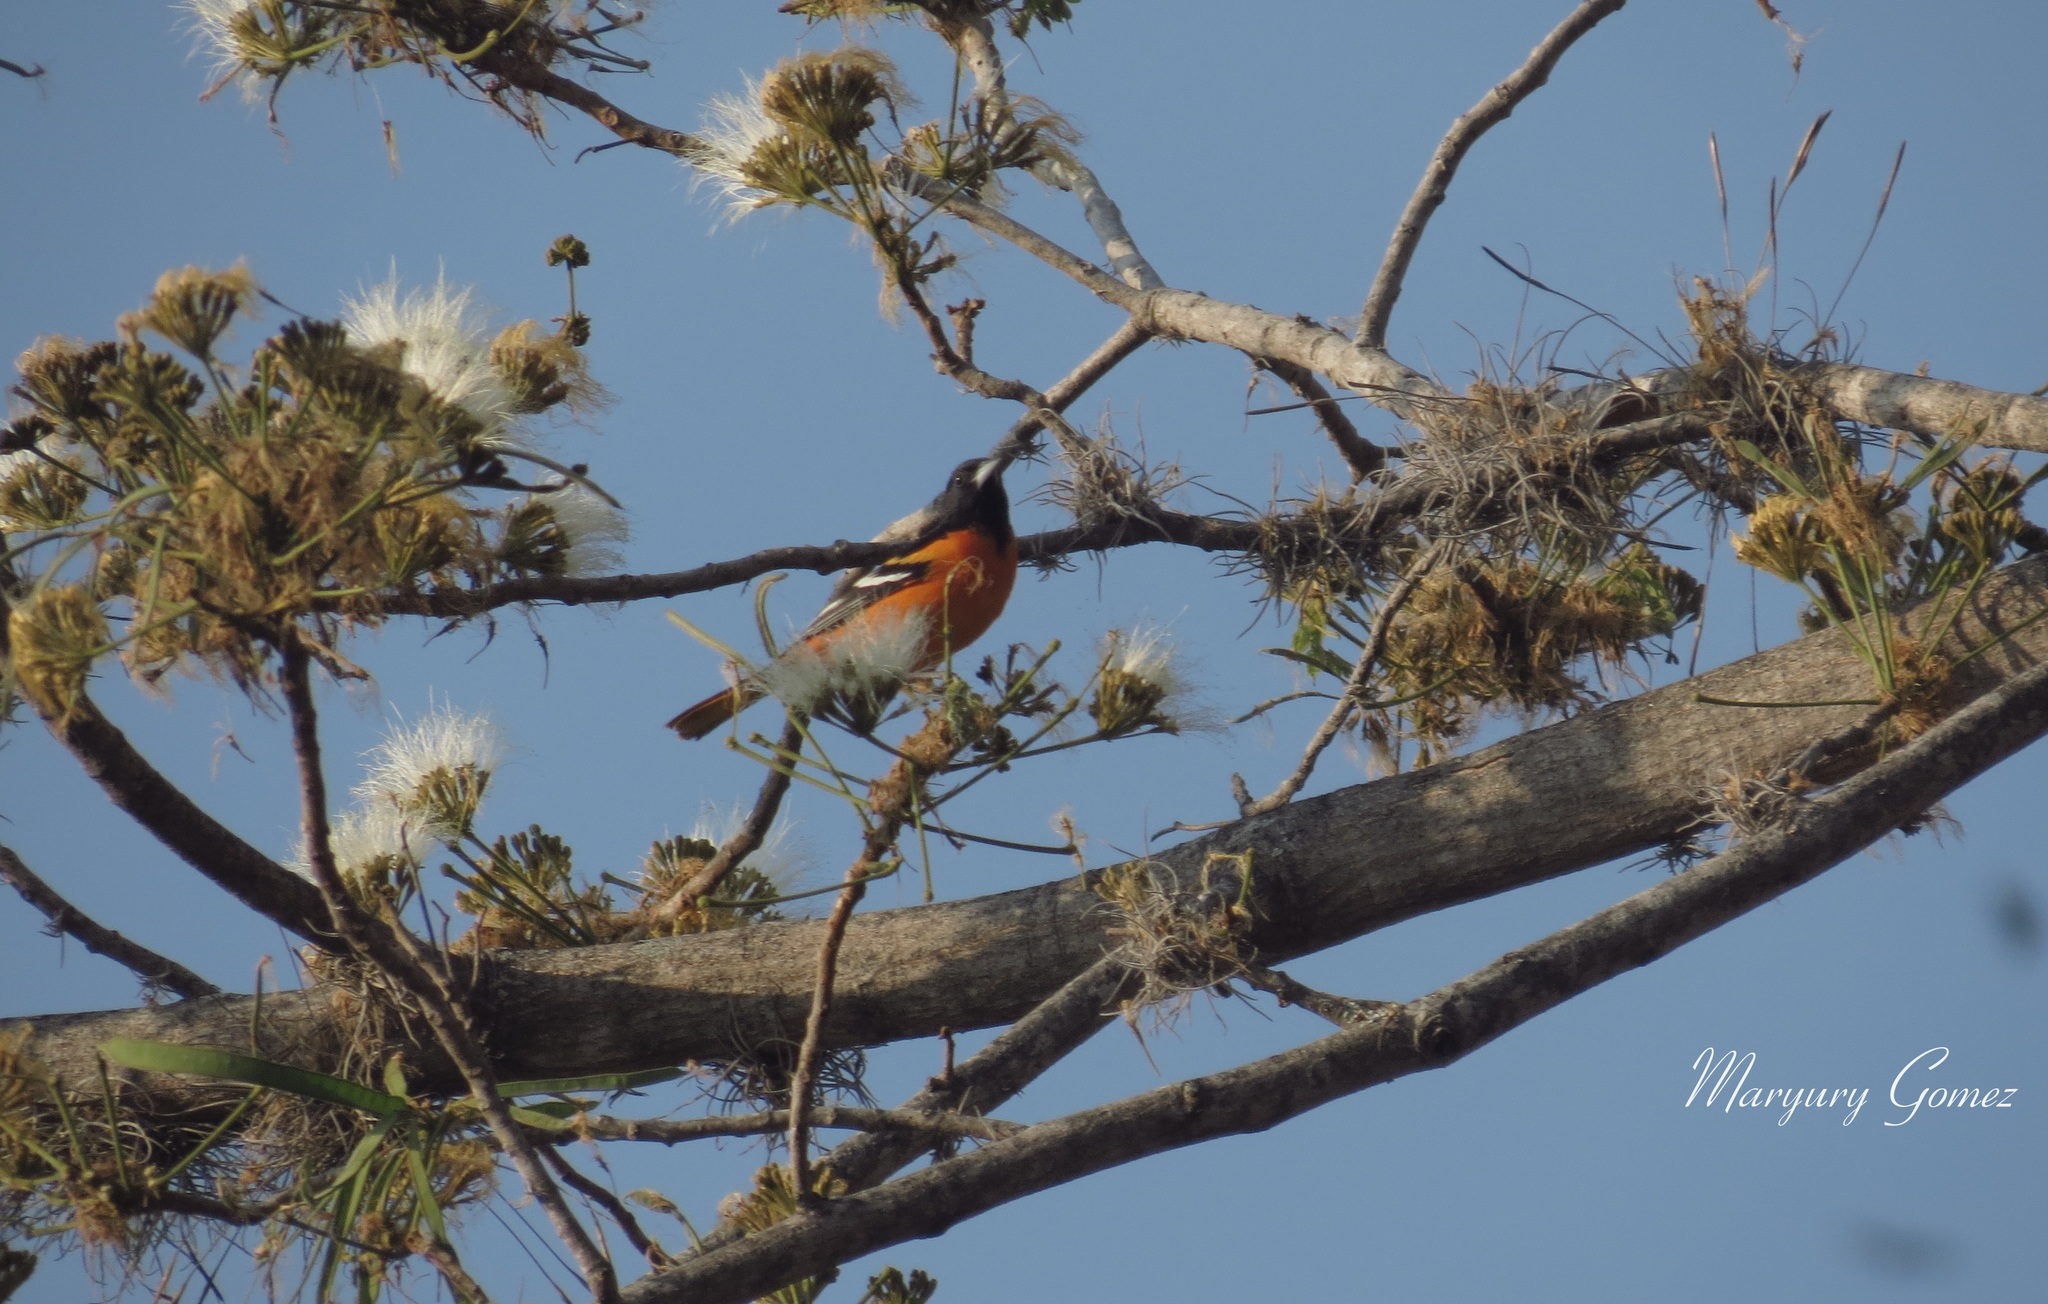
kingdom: Animalia
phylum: Chordata
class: Aves
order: Passeriformes
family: Icteridae
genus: Icterus
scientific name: Icterus galbula
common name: Baltimore oriole
